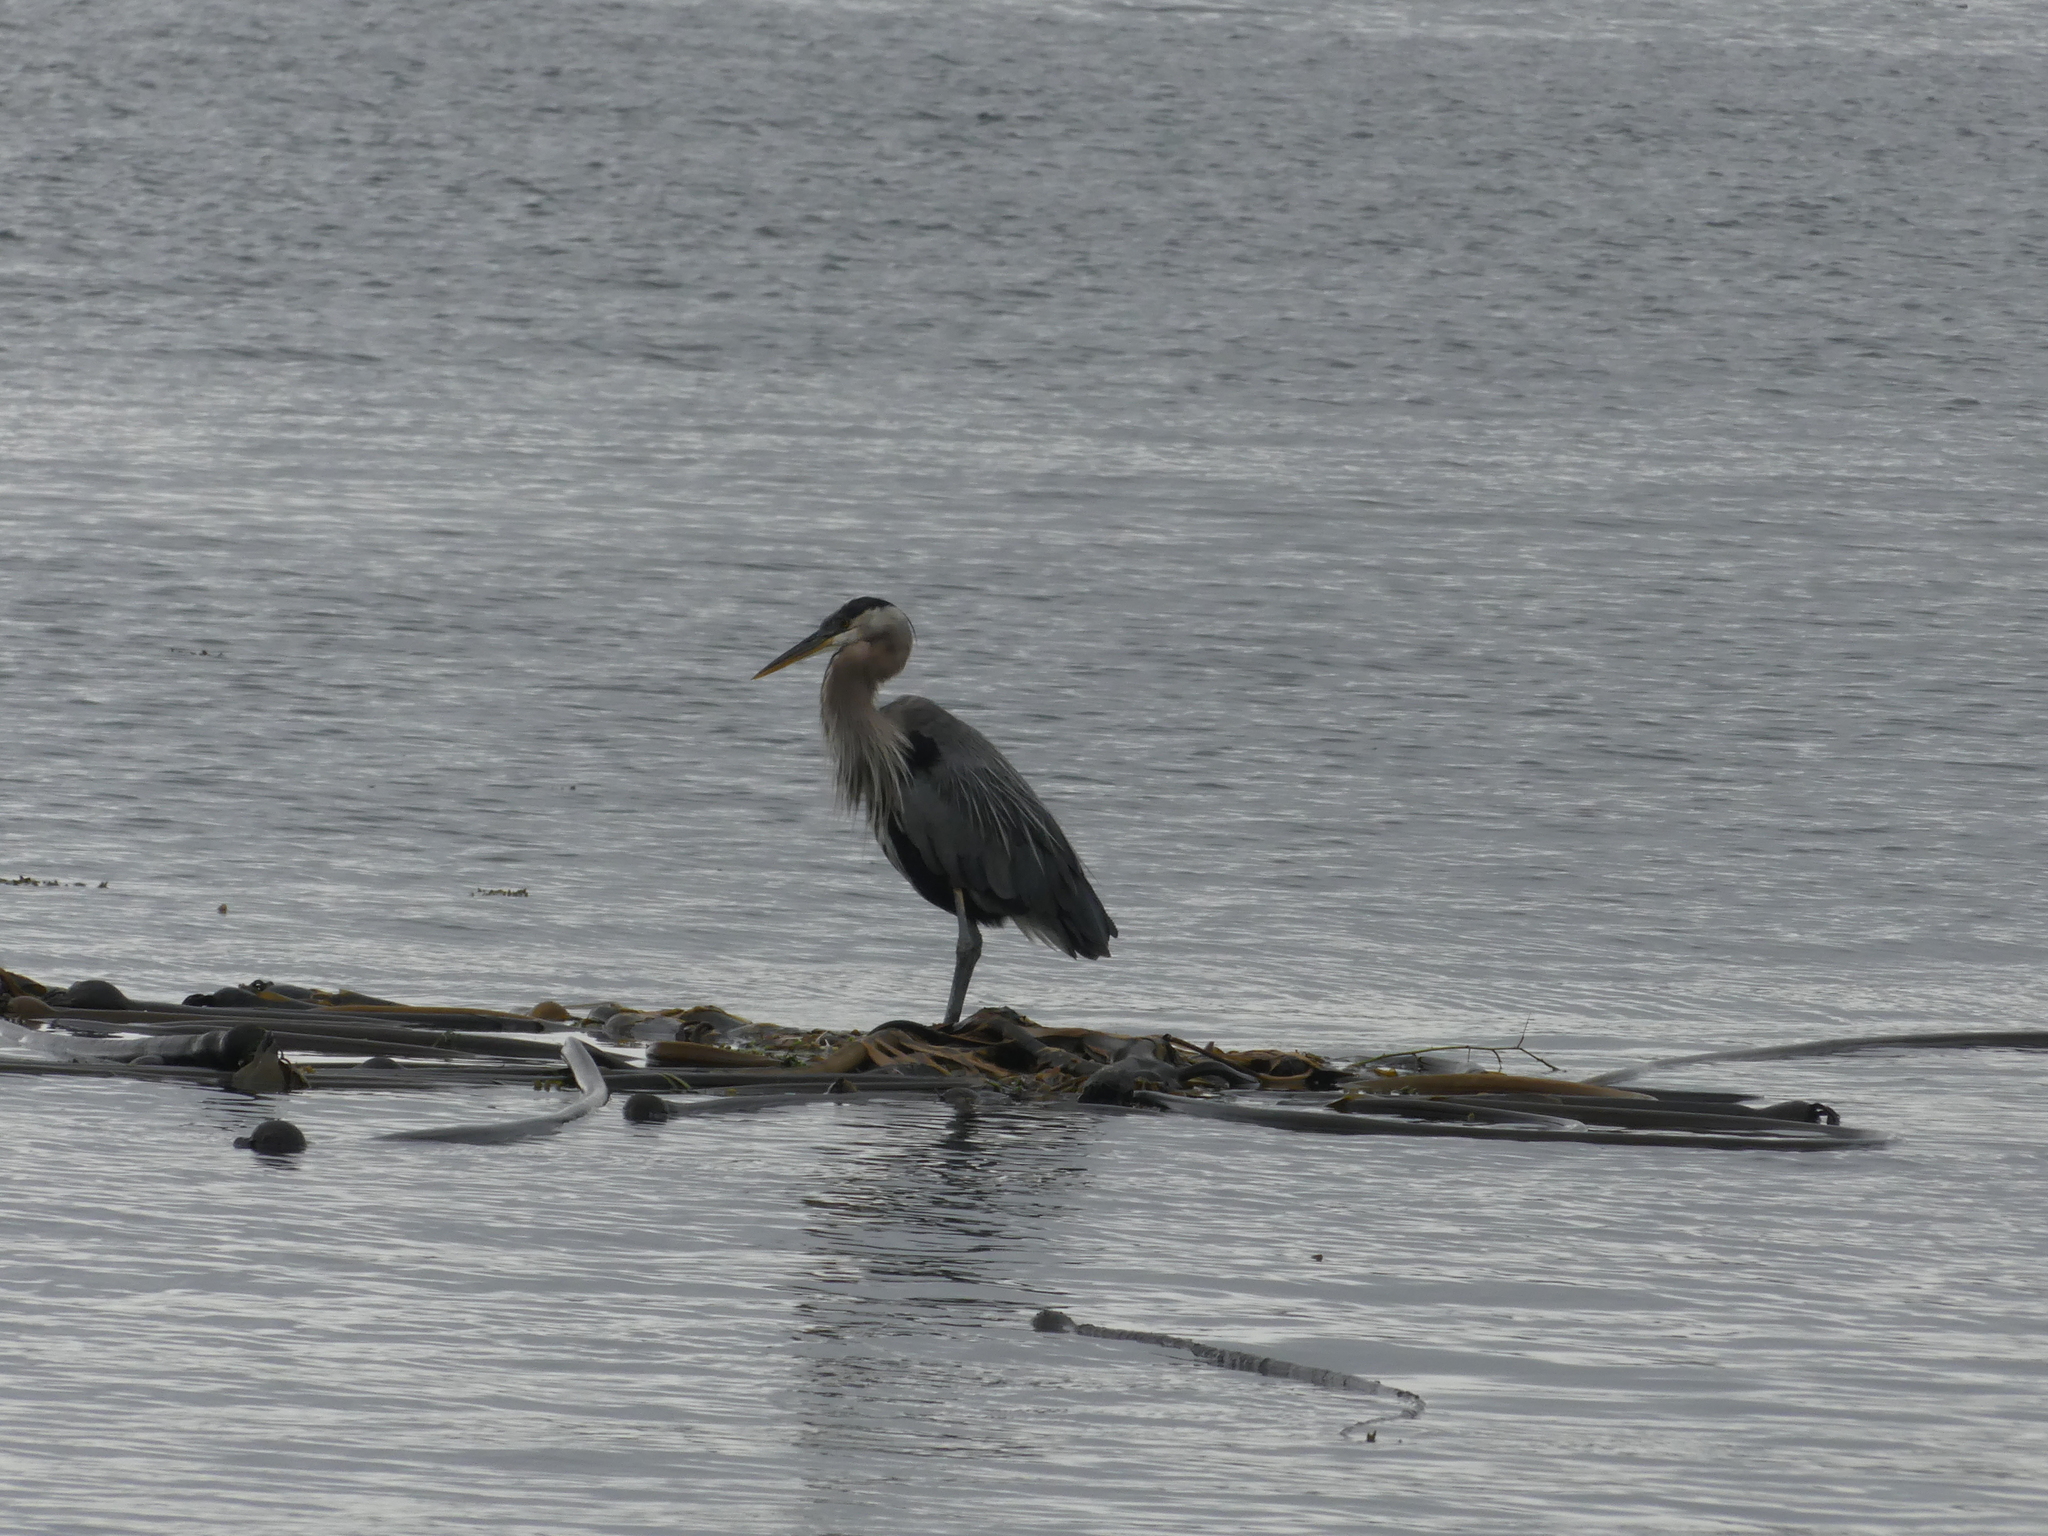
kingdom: Animalia
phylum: Chordata
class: Aves
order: Pelecaniformes
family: Ardeidae
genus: Ardea
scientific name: Ardea herodias
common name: Great blue heron
